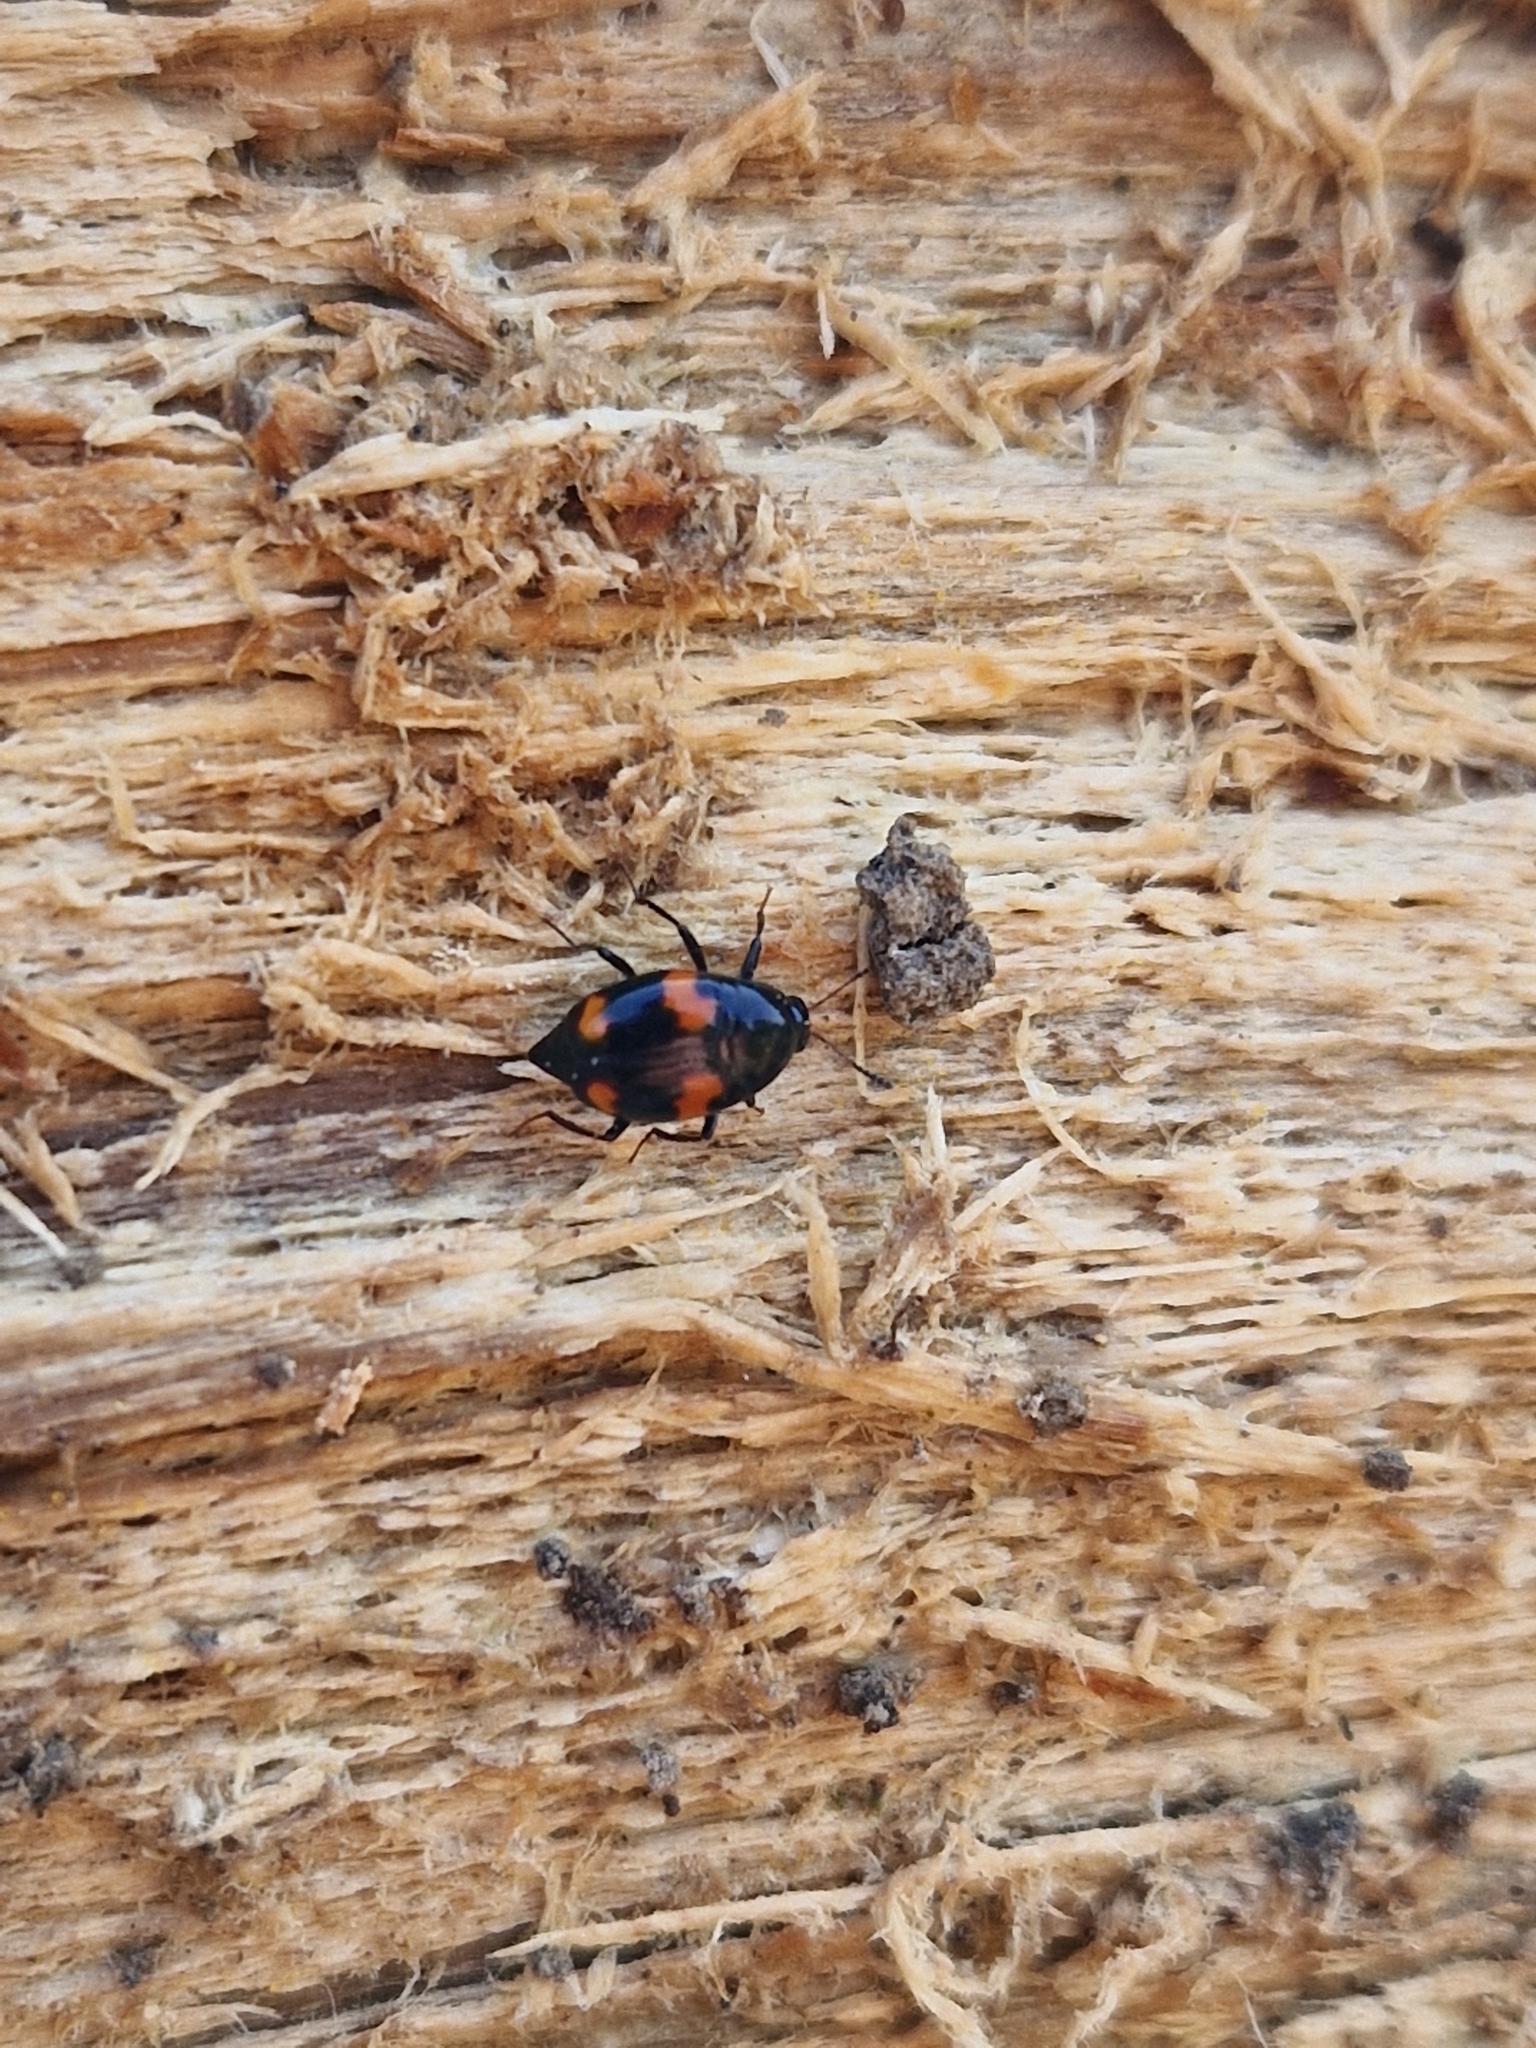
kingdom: Animalia
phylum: Arthropoda
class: Insecta
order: Coleoptera
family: Staphylinidae
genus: Scaphidium
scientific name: Scaphidium quadrimaculatum
